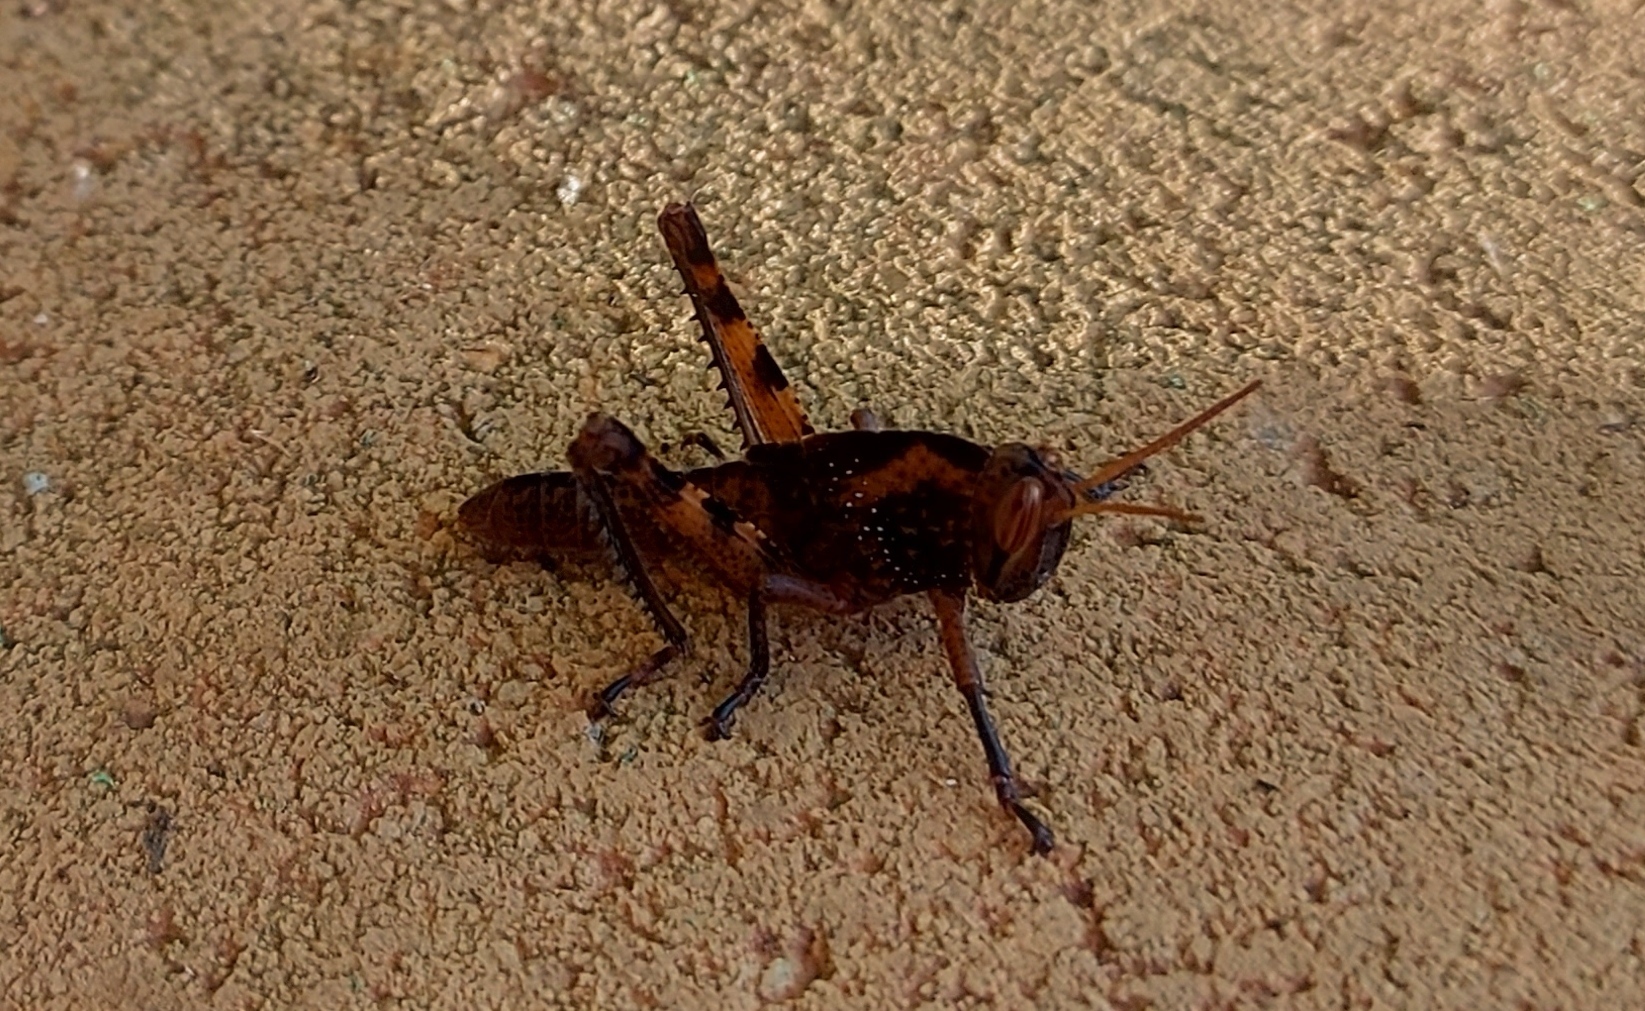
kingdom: Animalia
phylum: Arthropoda
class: Insecta
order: Orthoptera
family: Acrididae
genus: Anacridium
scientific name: Anacridium aegyptium
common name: Egyptian grasshopper
